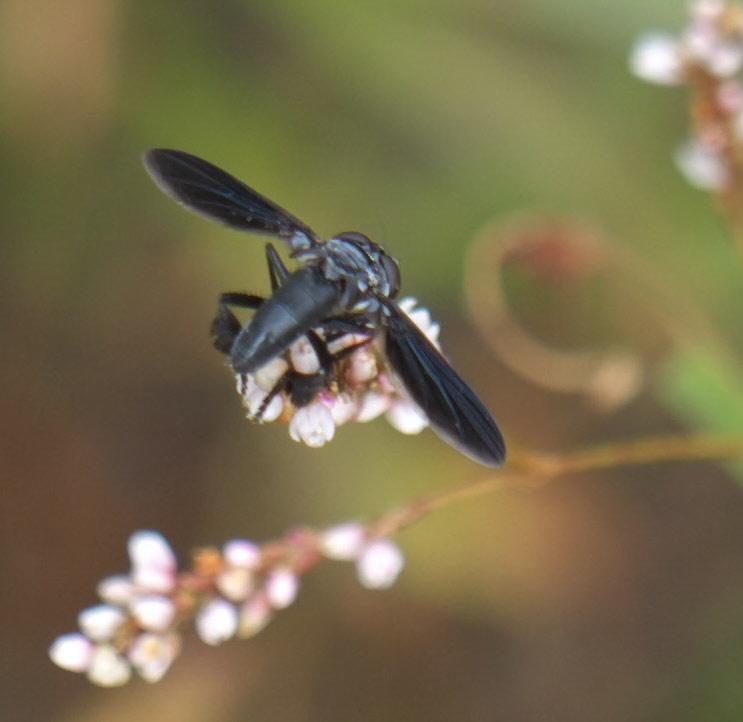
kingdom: Animalia
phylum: Arthropoda
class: Insecta
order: Diptera
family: Tachinidae
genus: Trichopoda
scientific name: Trichopoda lanipes
